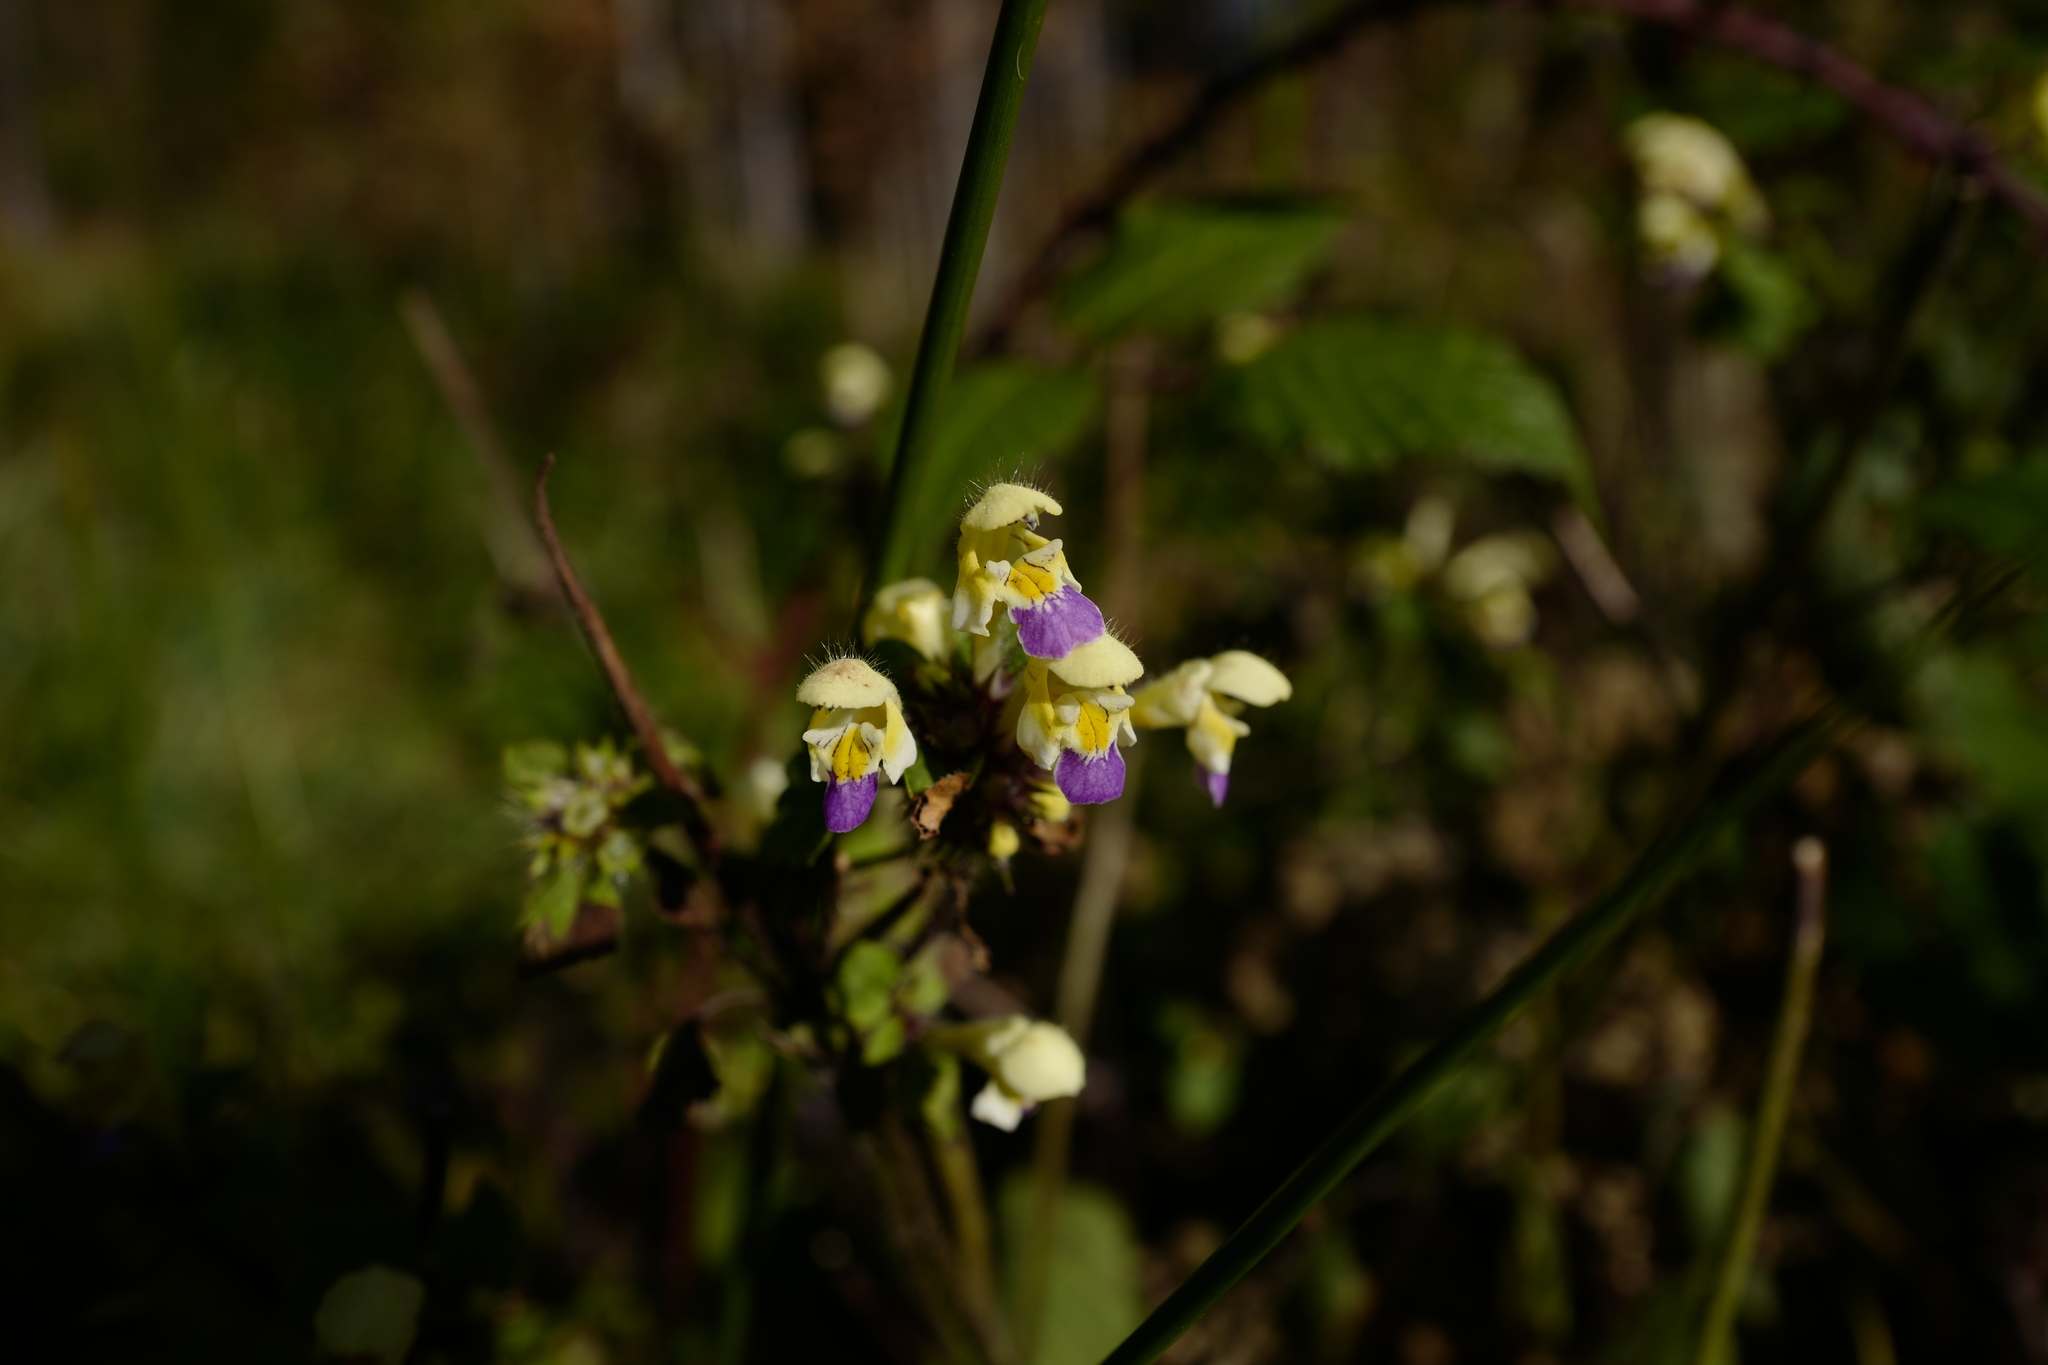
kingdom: Plantae
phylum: Tracheophyta
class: Magnoliopsida
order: Lamiales
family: Lamiaceae
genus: Galeopsis
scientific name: Galeopsis speciosa
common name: Large-flowered hemp-nettle
